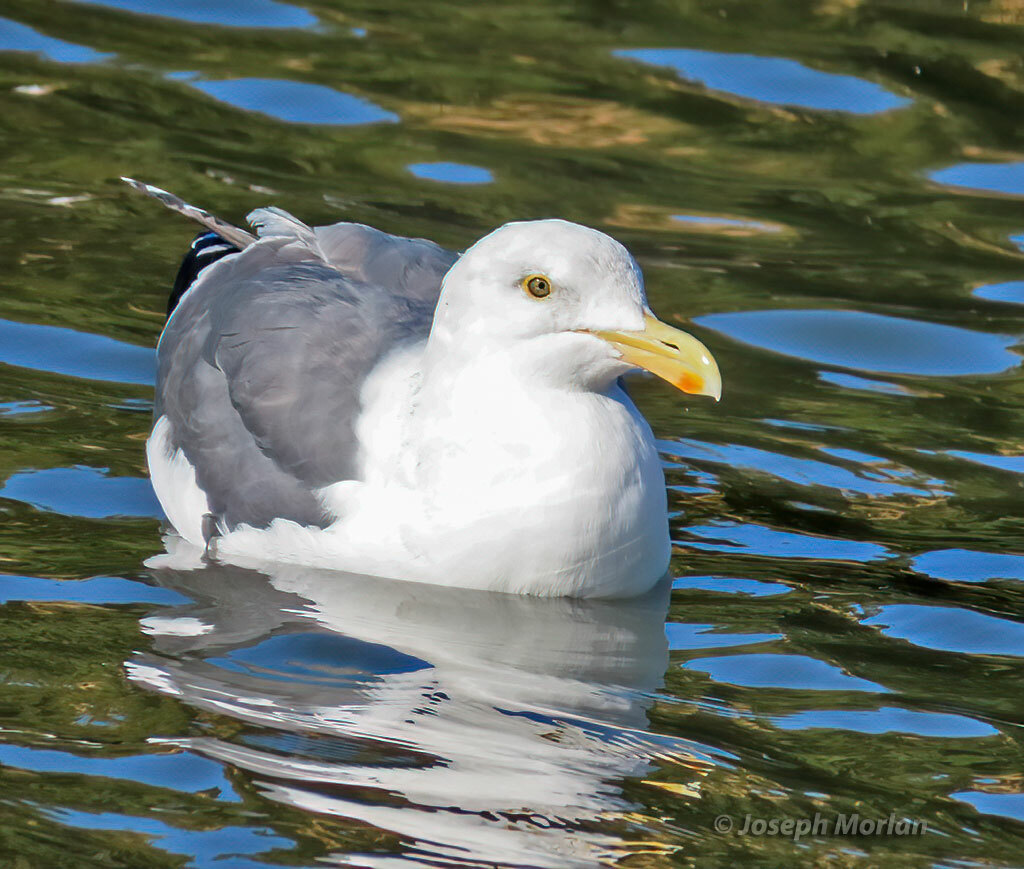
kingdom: Animalia
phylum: Chordata
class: Aves
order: Charadriiformes
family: Laridae
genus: Larus
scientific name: Larus occidentalis
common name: Western gull
